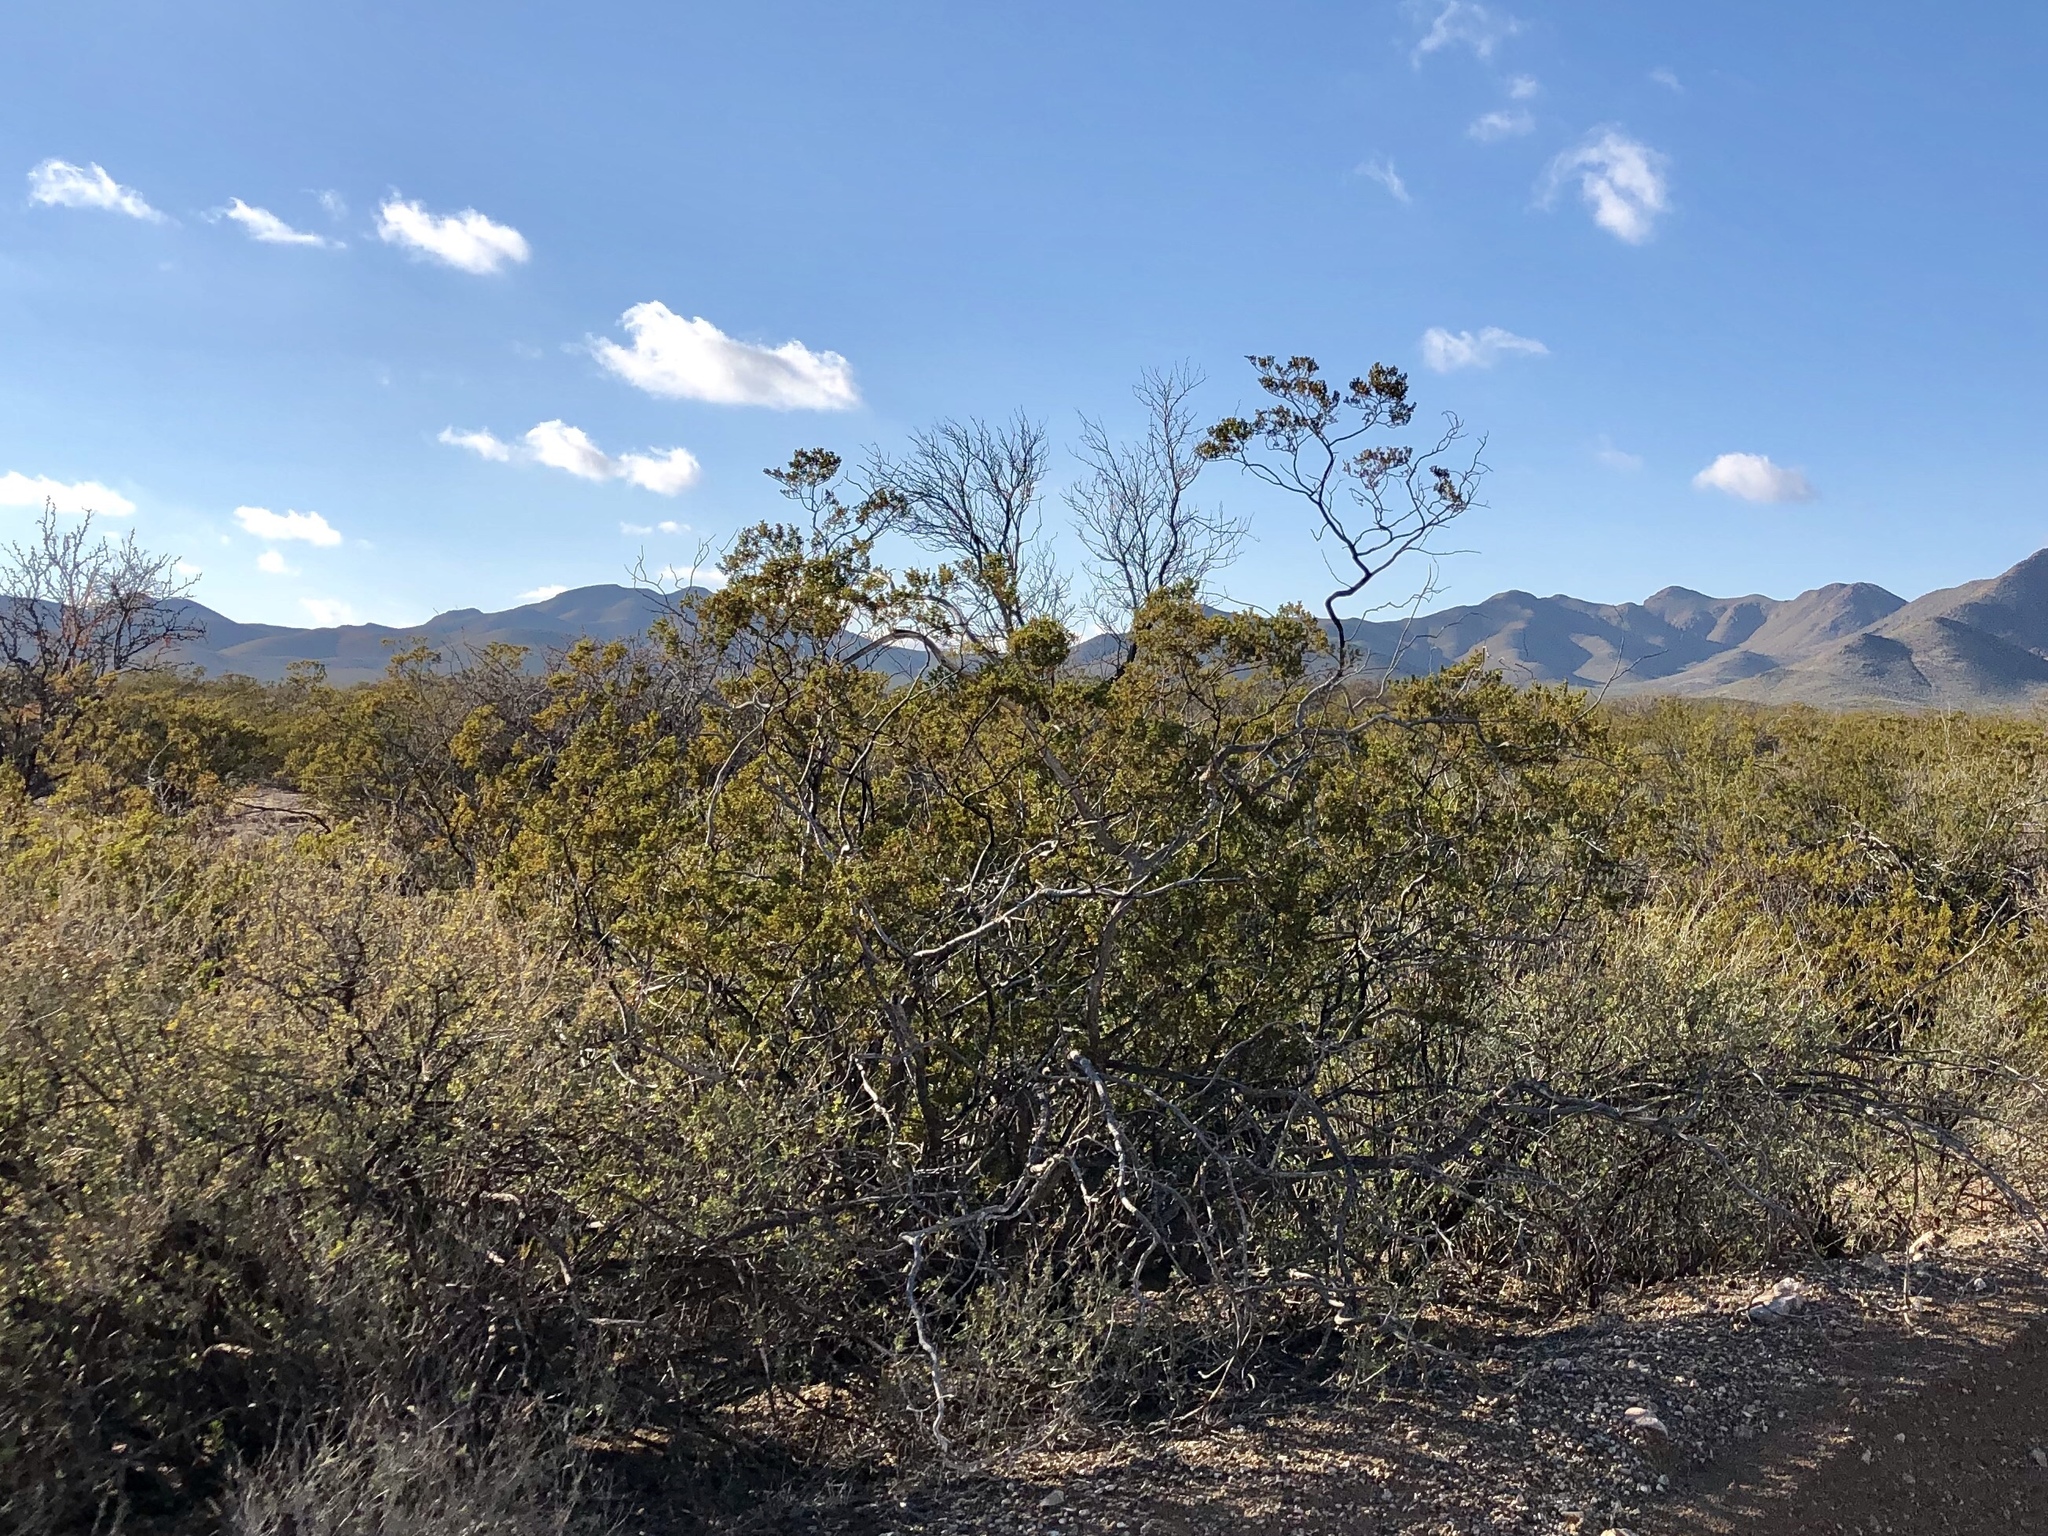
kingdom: Plantae
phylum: Tracheophyta
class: Magnoliopsida
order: Zygophyllales
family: Zygophyllaceae
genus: Larrea
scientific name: Larrea tridentata
